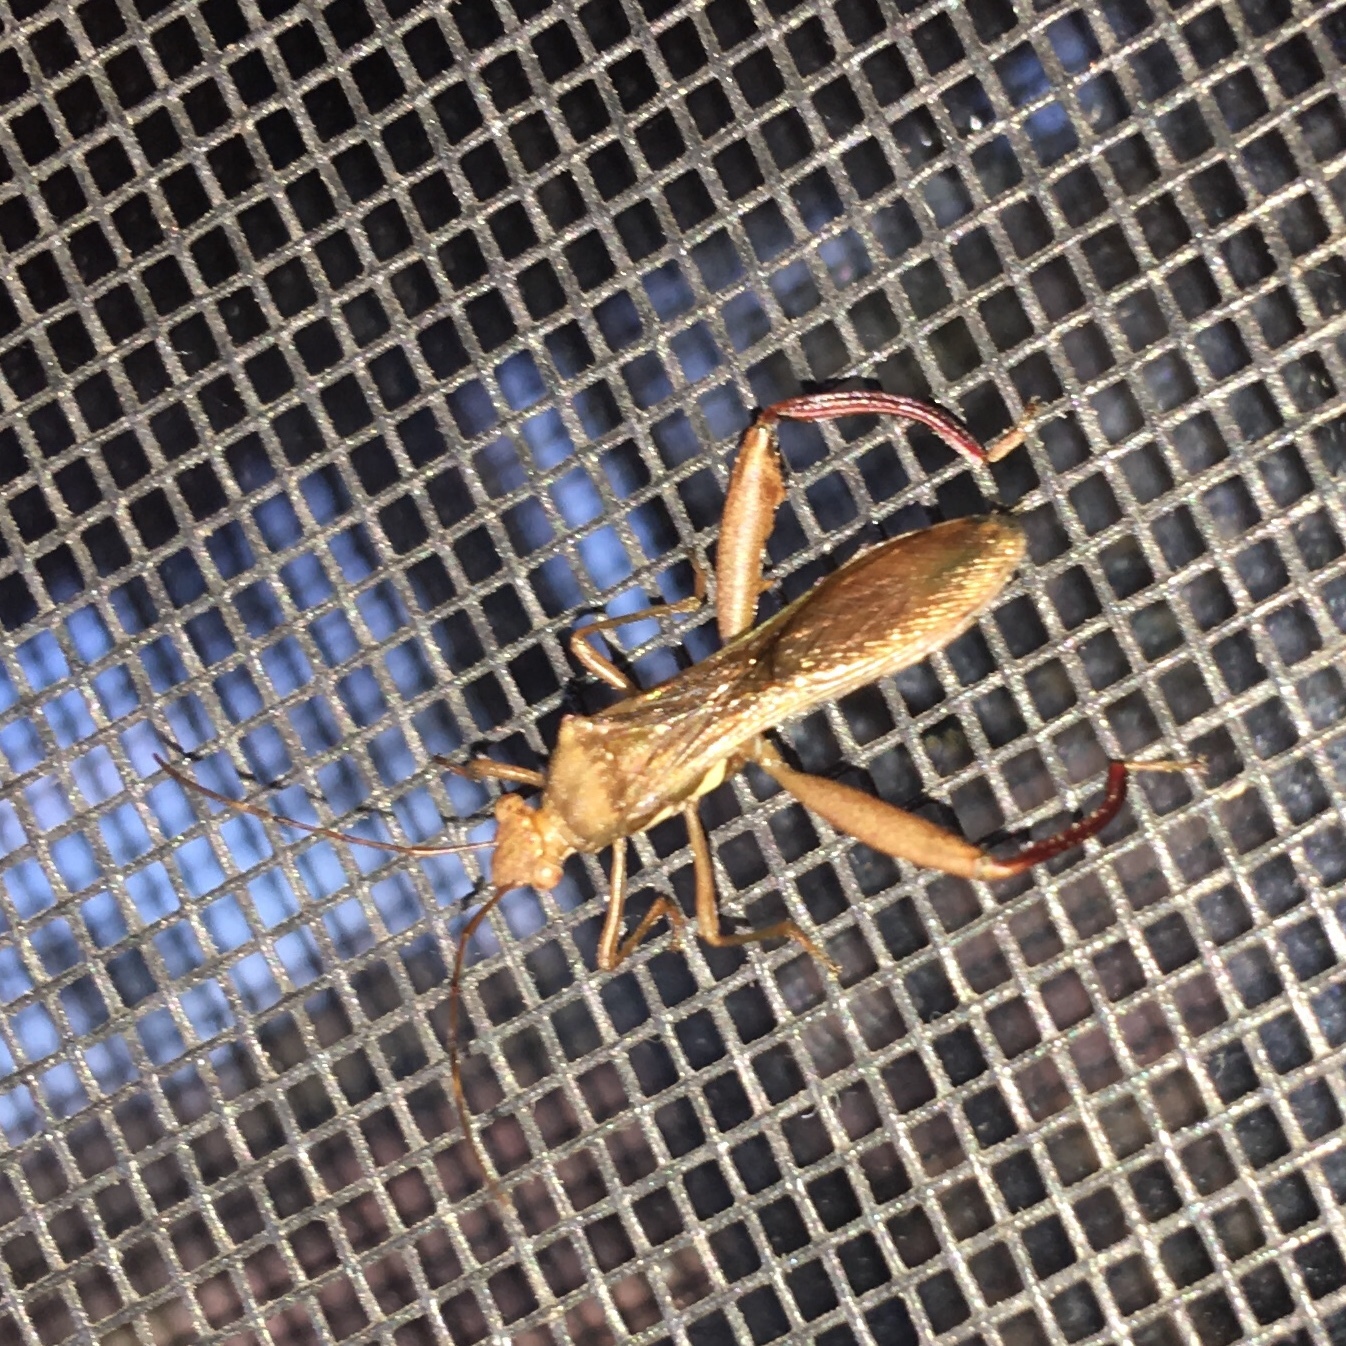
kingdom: Animalia
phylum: Arthropoda
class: Insecta
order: Hemiptera
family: Alydidae
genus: Hyalymenus
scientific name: Hyalymenus tarsatus
